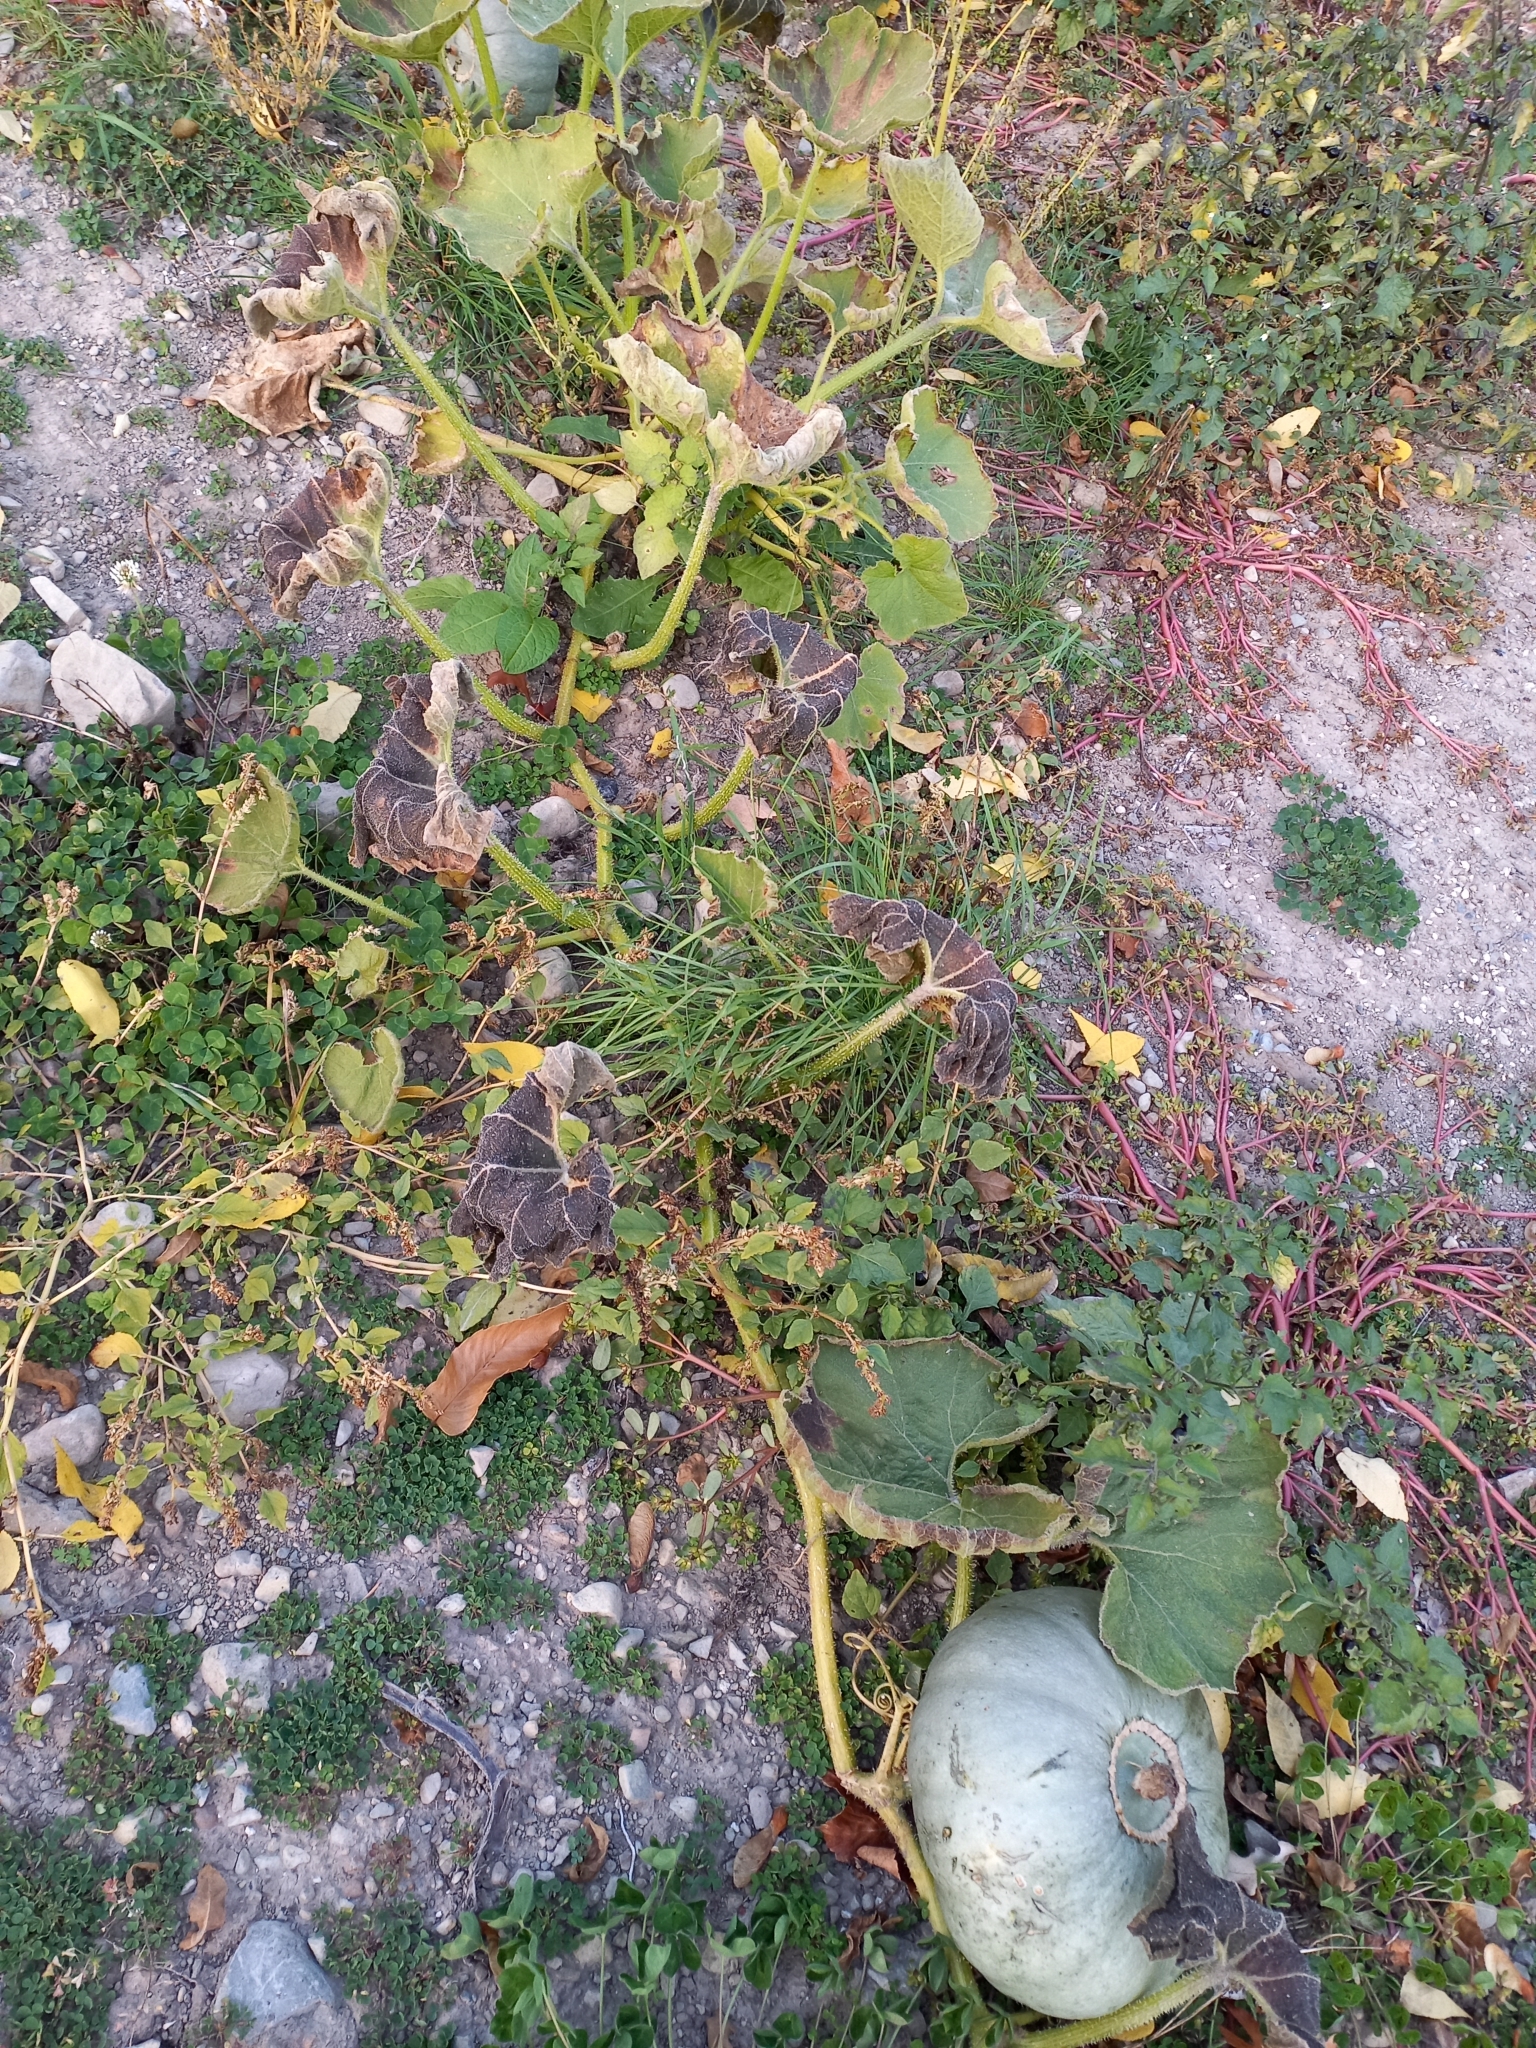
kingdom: Plantae
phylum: Tracheophyta
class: Magnoliopsida
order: Cucurbitales
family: Cucurbitaceae
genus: Cucurbita
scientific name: Cucurbita pepo
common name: Marrow
